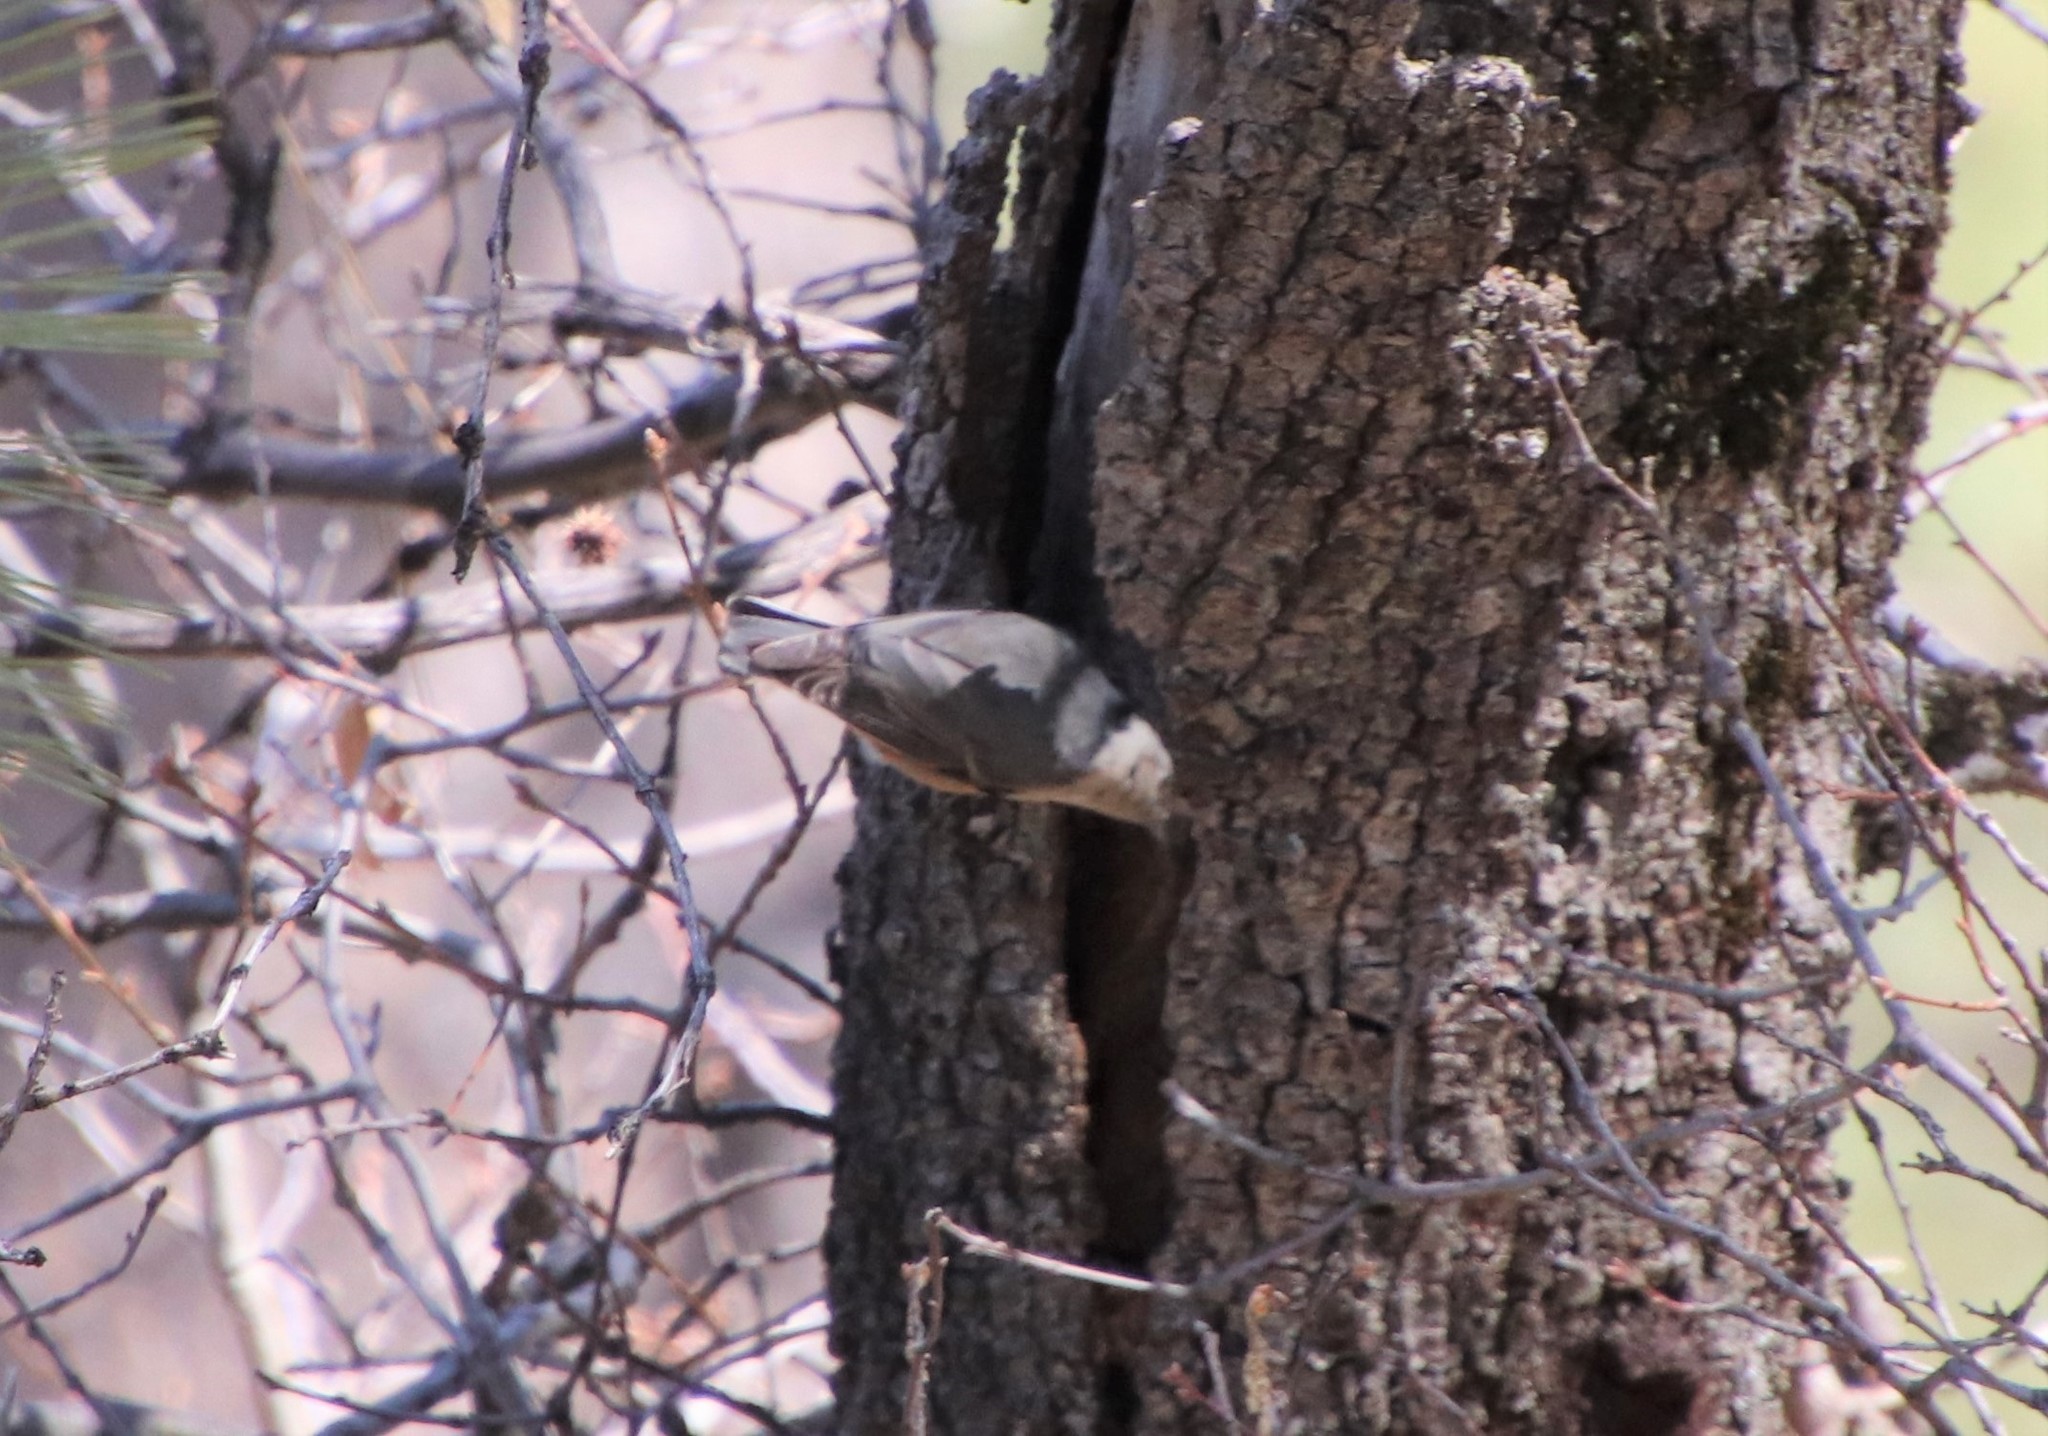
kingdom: Animalia
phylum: Chordata
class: Aves
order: Passeriformes
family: Sittidae
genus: Sitta
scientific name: Sitta carolinensis
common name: White-breasted nuthatch
